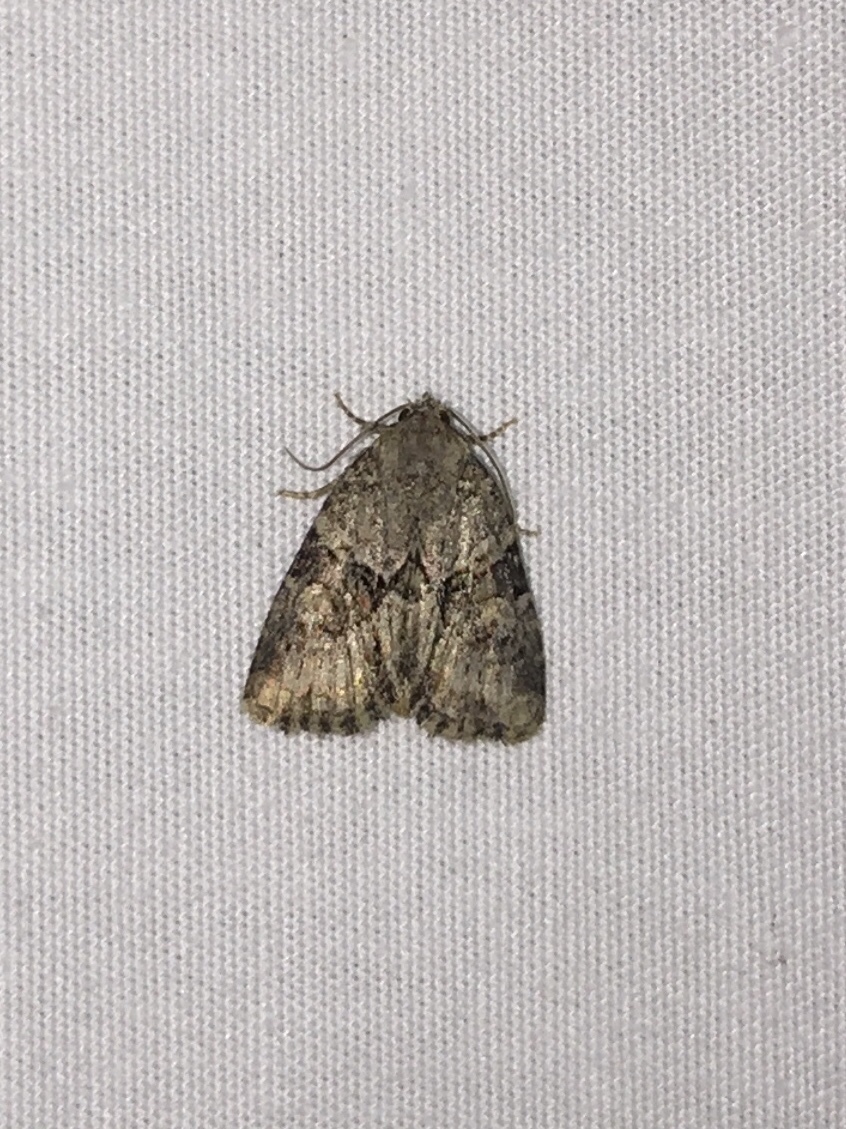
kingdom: Animalia
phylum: Arthropoda
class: Insecta
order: Lepidoptera
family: Noctuidae
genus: Neoligia
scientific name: Neoligia exhausta
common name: Exhausted brocade
